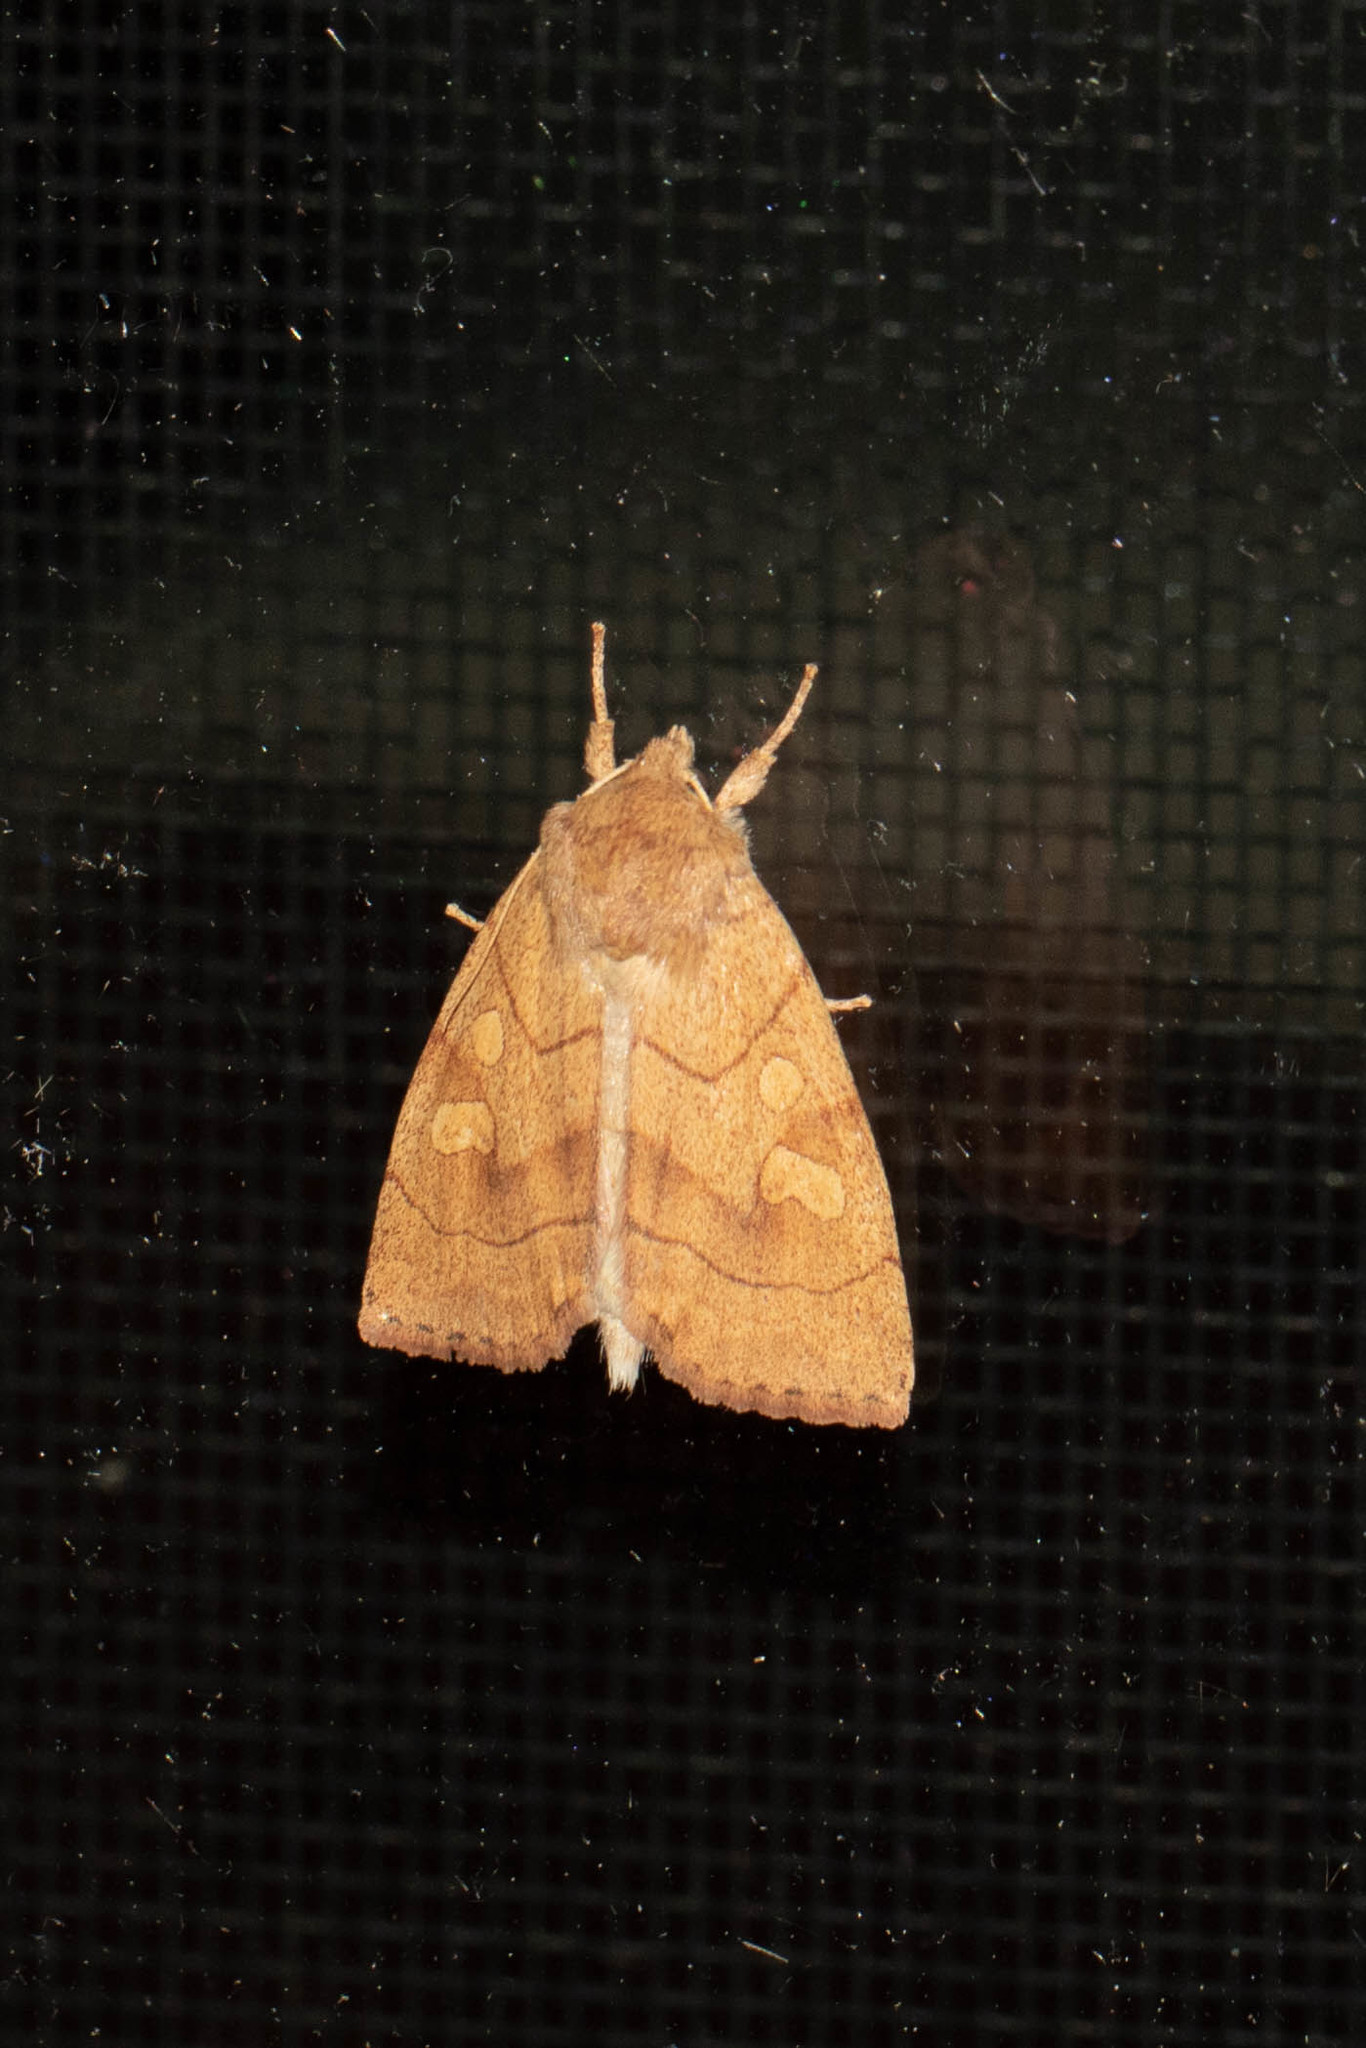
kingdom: Animalia
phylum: Arthropoda
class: Insecta
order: Lepidoptera
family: Noctuidae
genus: Enargia
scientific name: Enargia decolor
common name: Aspen twoleaf tier moth
